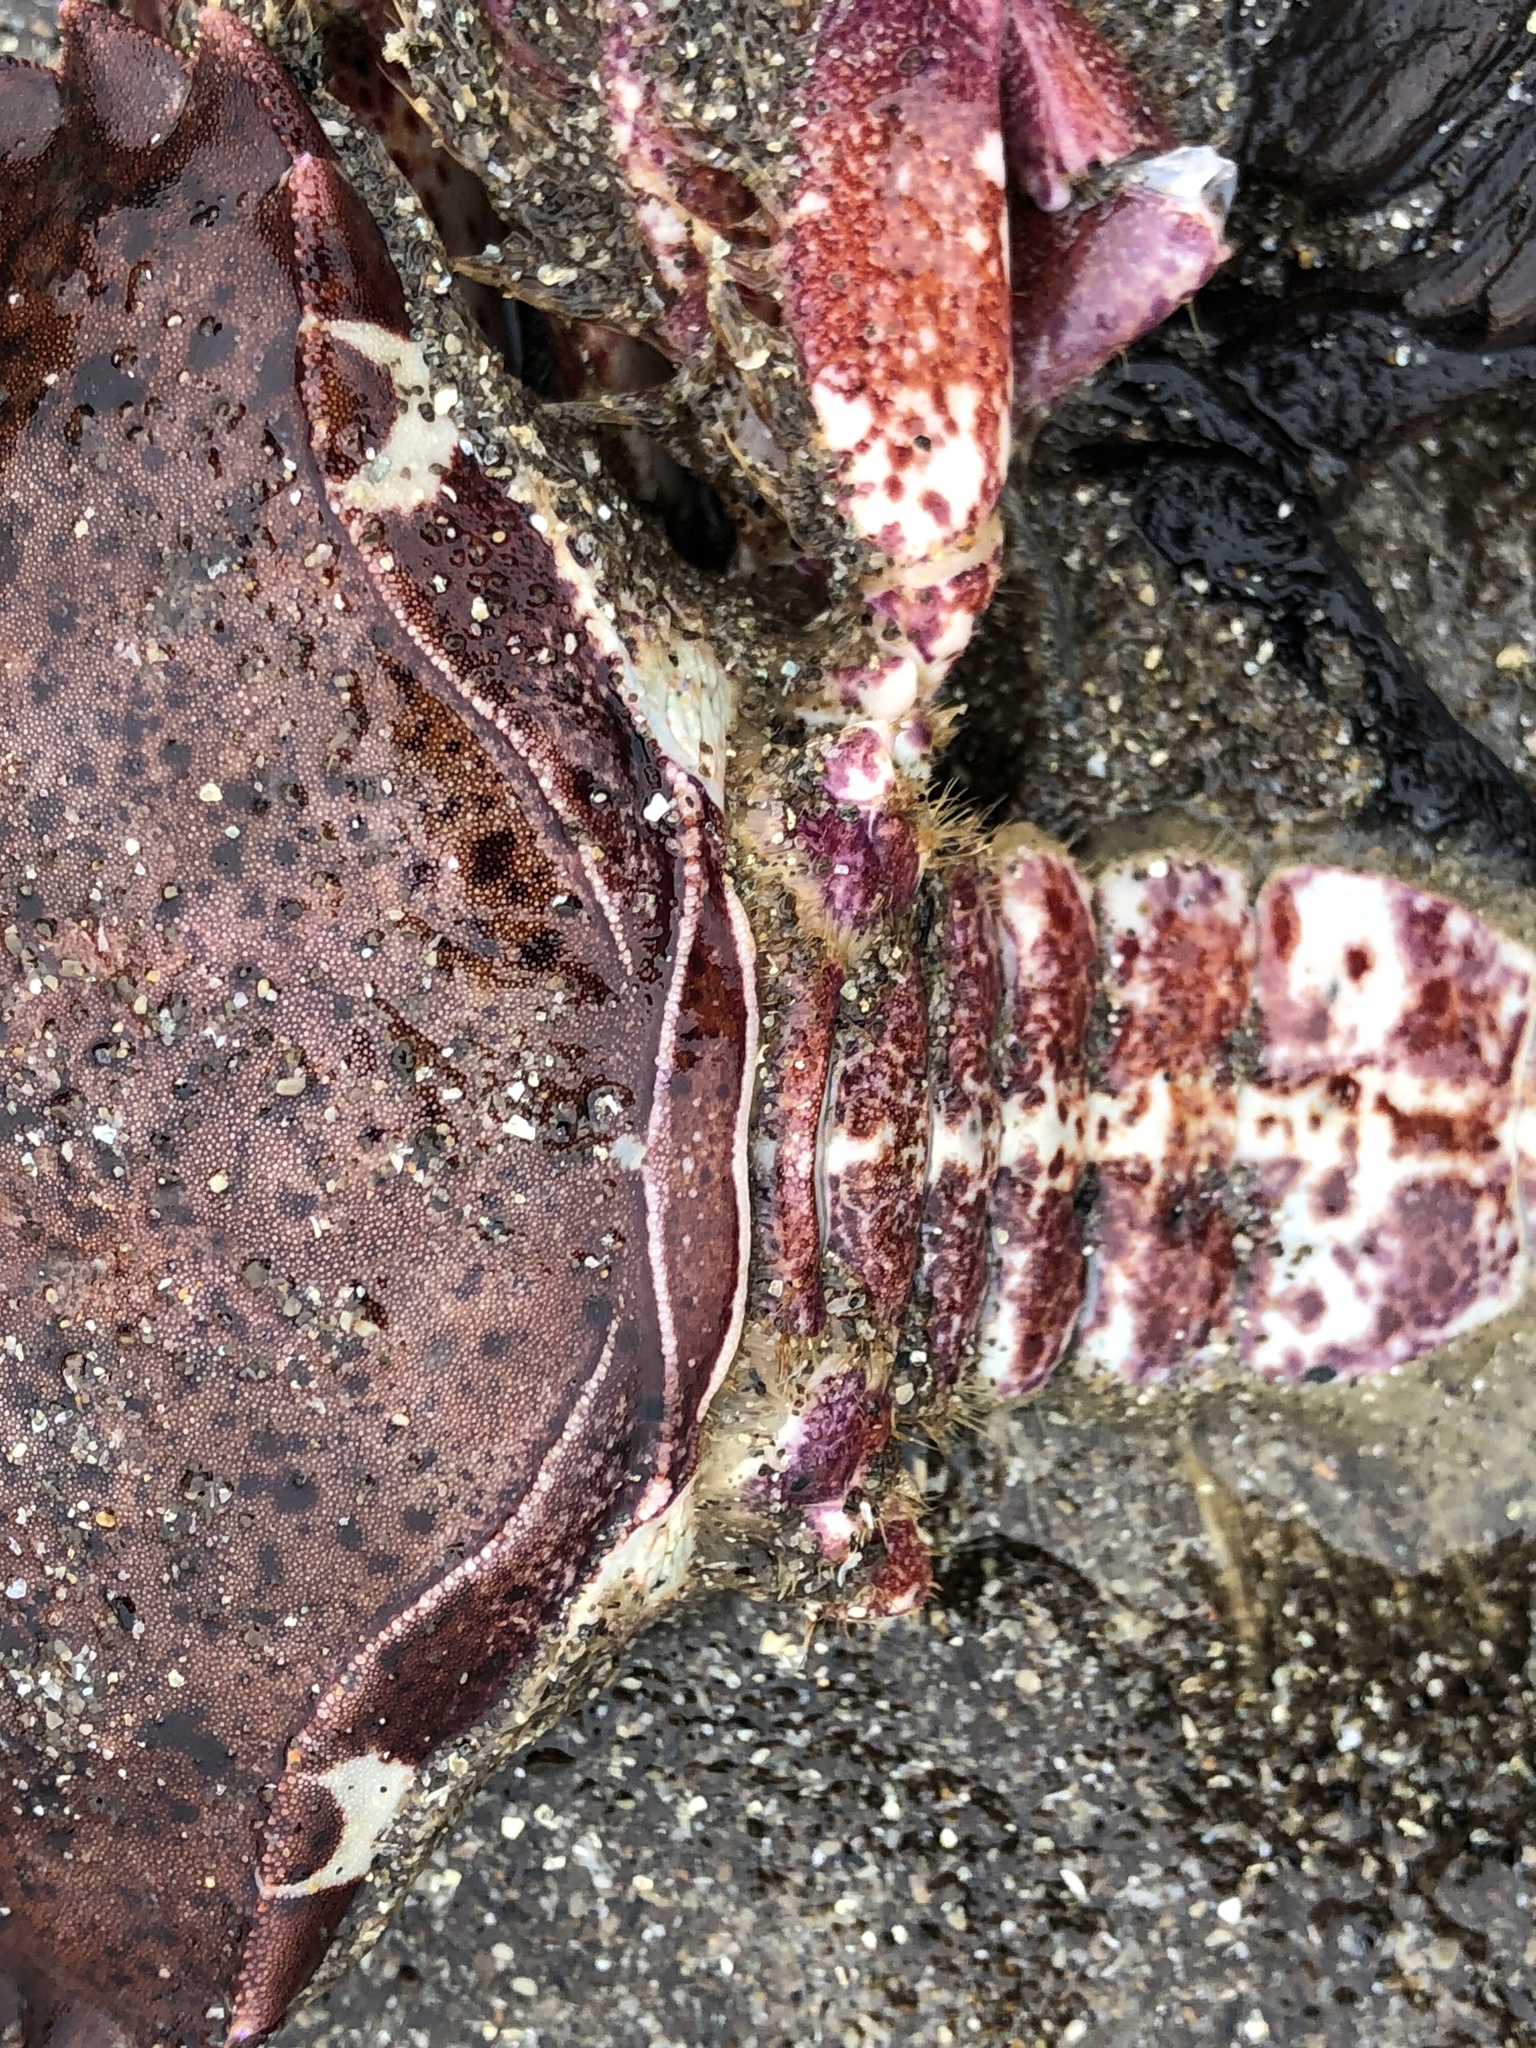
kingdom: Animalia
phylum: Arthropoda
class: Malacostraca
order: Decapoda
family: Cancridae
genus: Romaleon
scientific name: Romaleon antennarium
